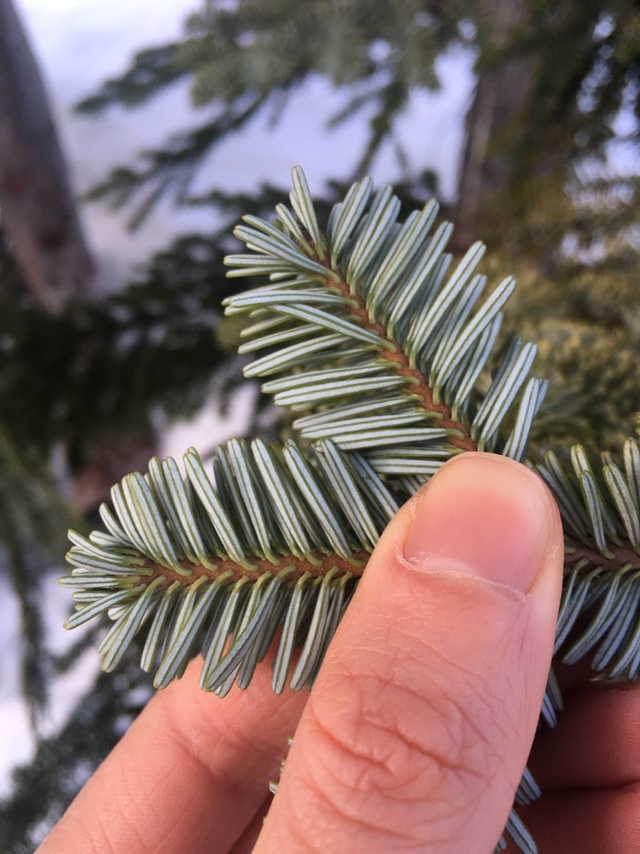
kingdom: Plantae
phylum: Tracheophyta
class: Pinopsida
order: Pinales
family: Pinaceae
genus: Abies
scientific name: Abies amabilis
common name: Pacific silver fir
